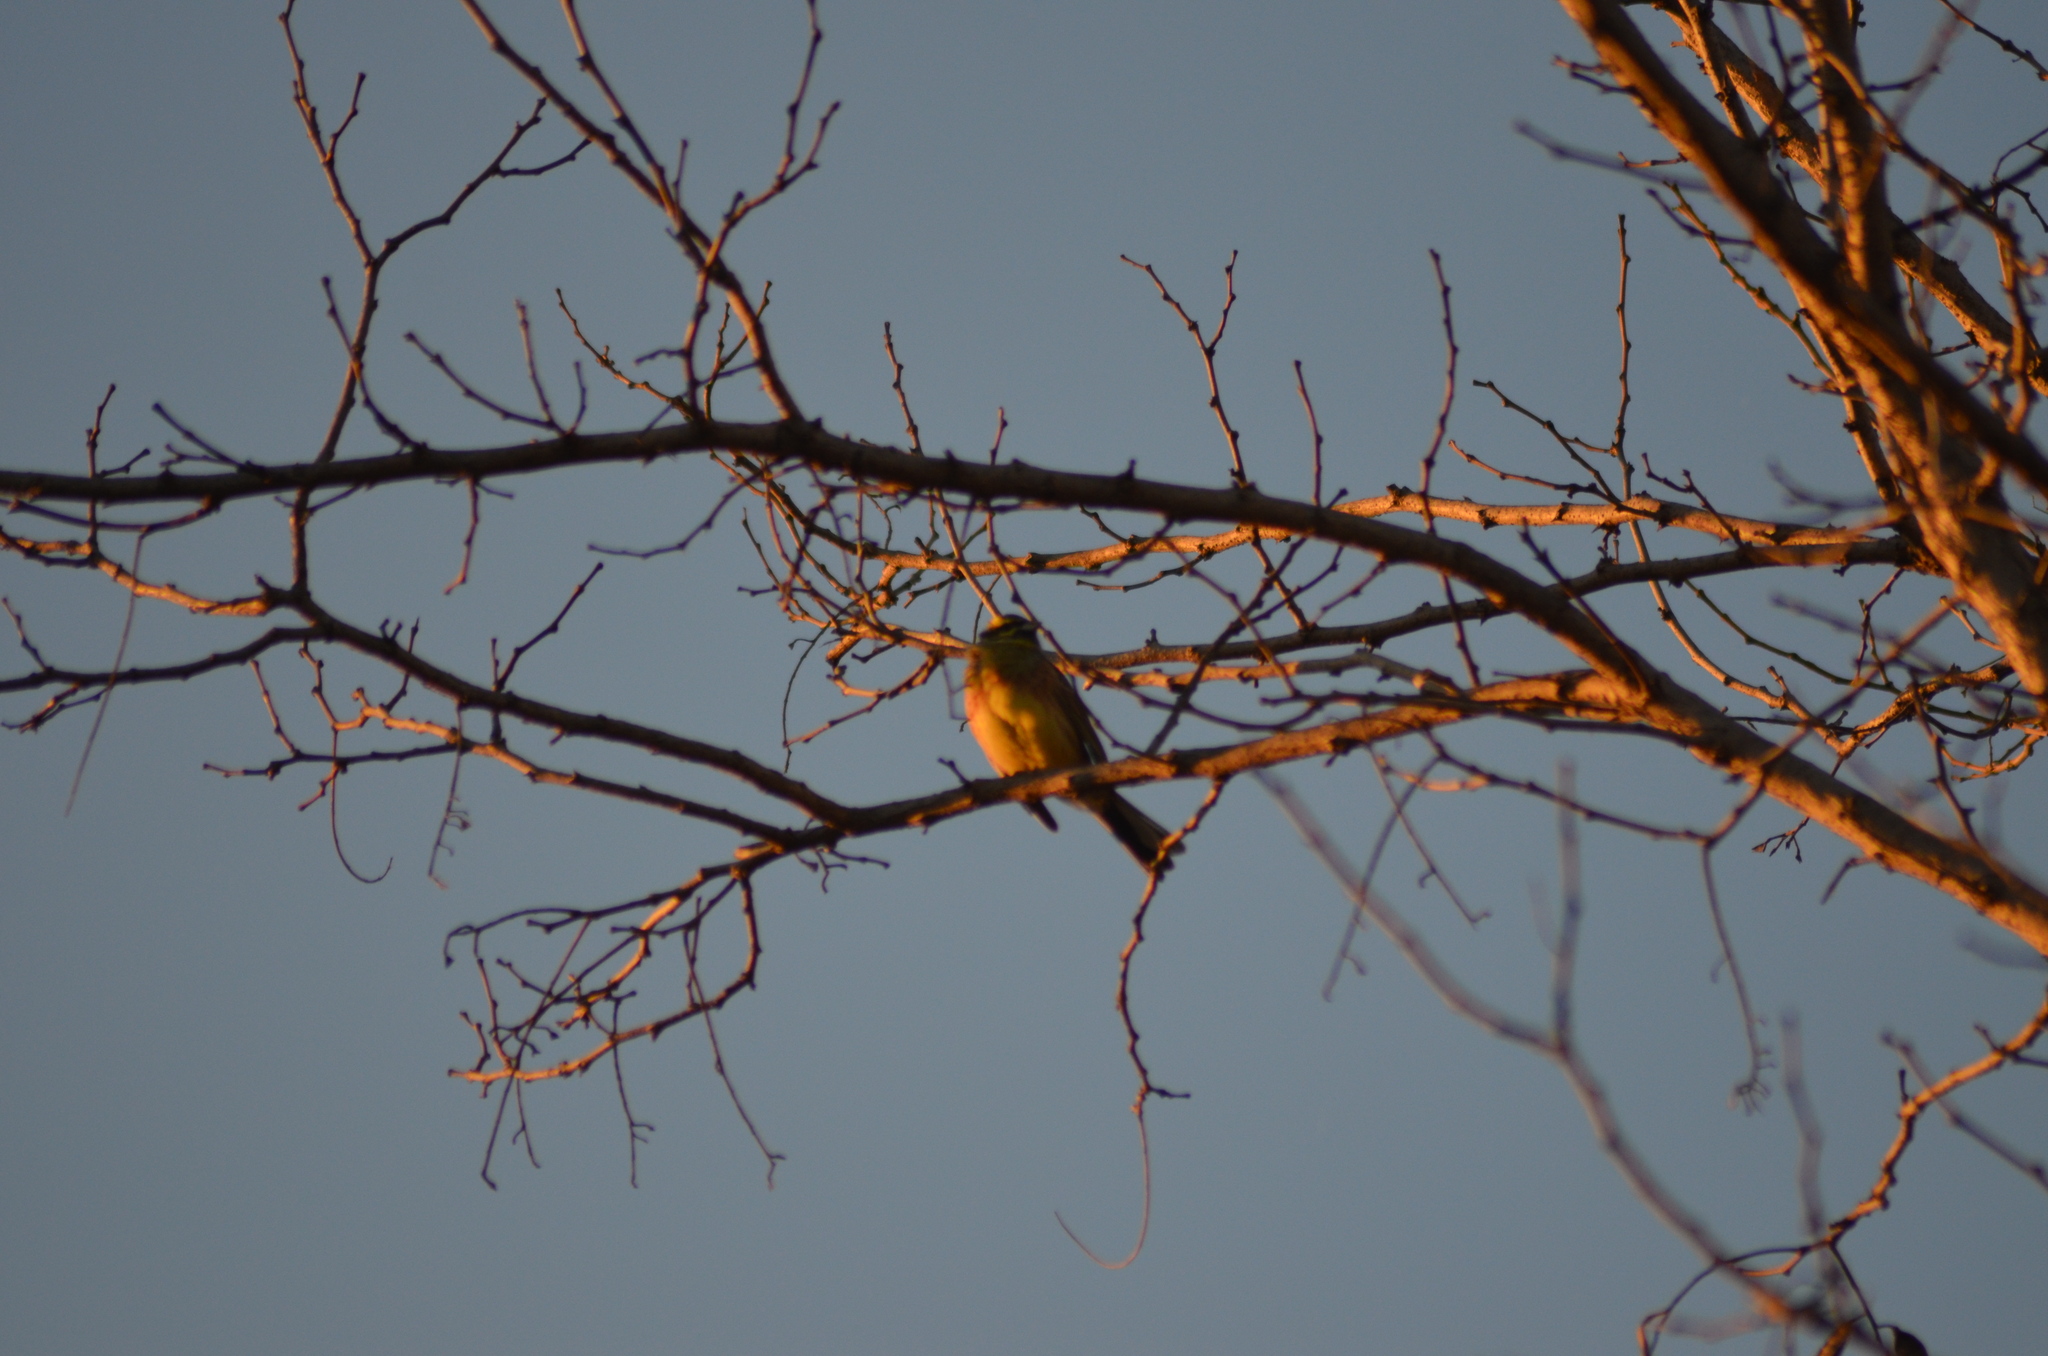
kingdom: Animalia
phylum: Chordata
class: Aves
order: Passeriformes
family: Emberizidae
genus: Emberiza
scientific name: Emberiza cirlus
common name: Cirl bunting
